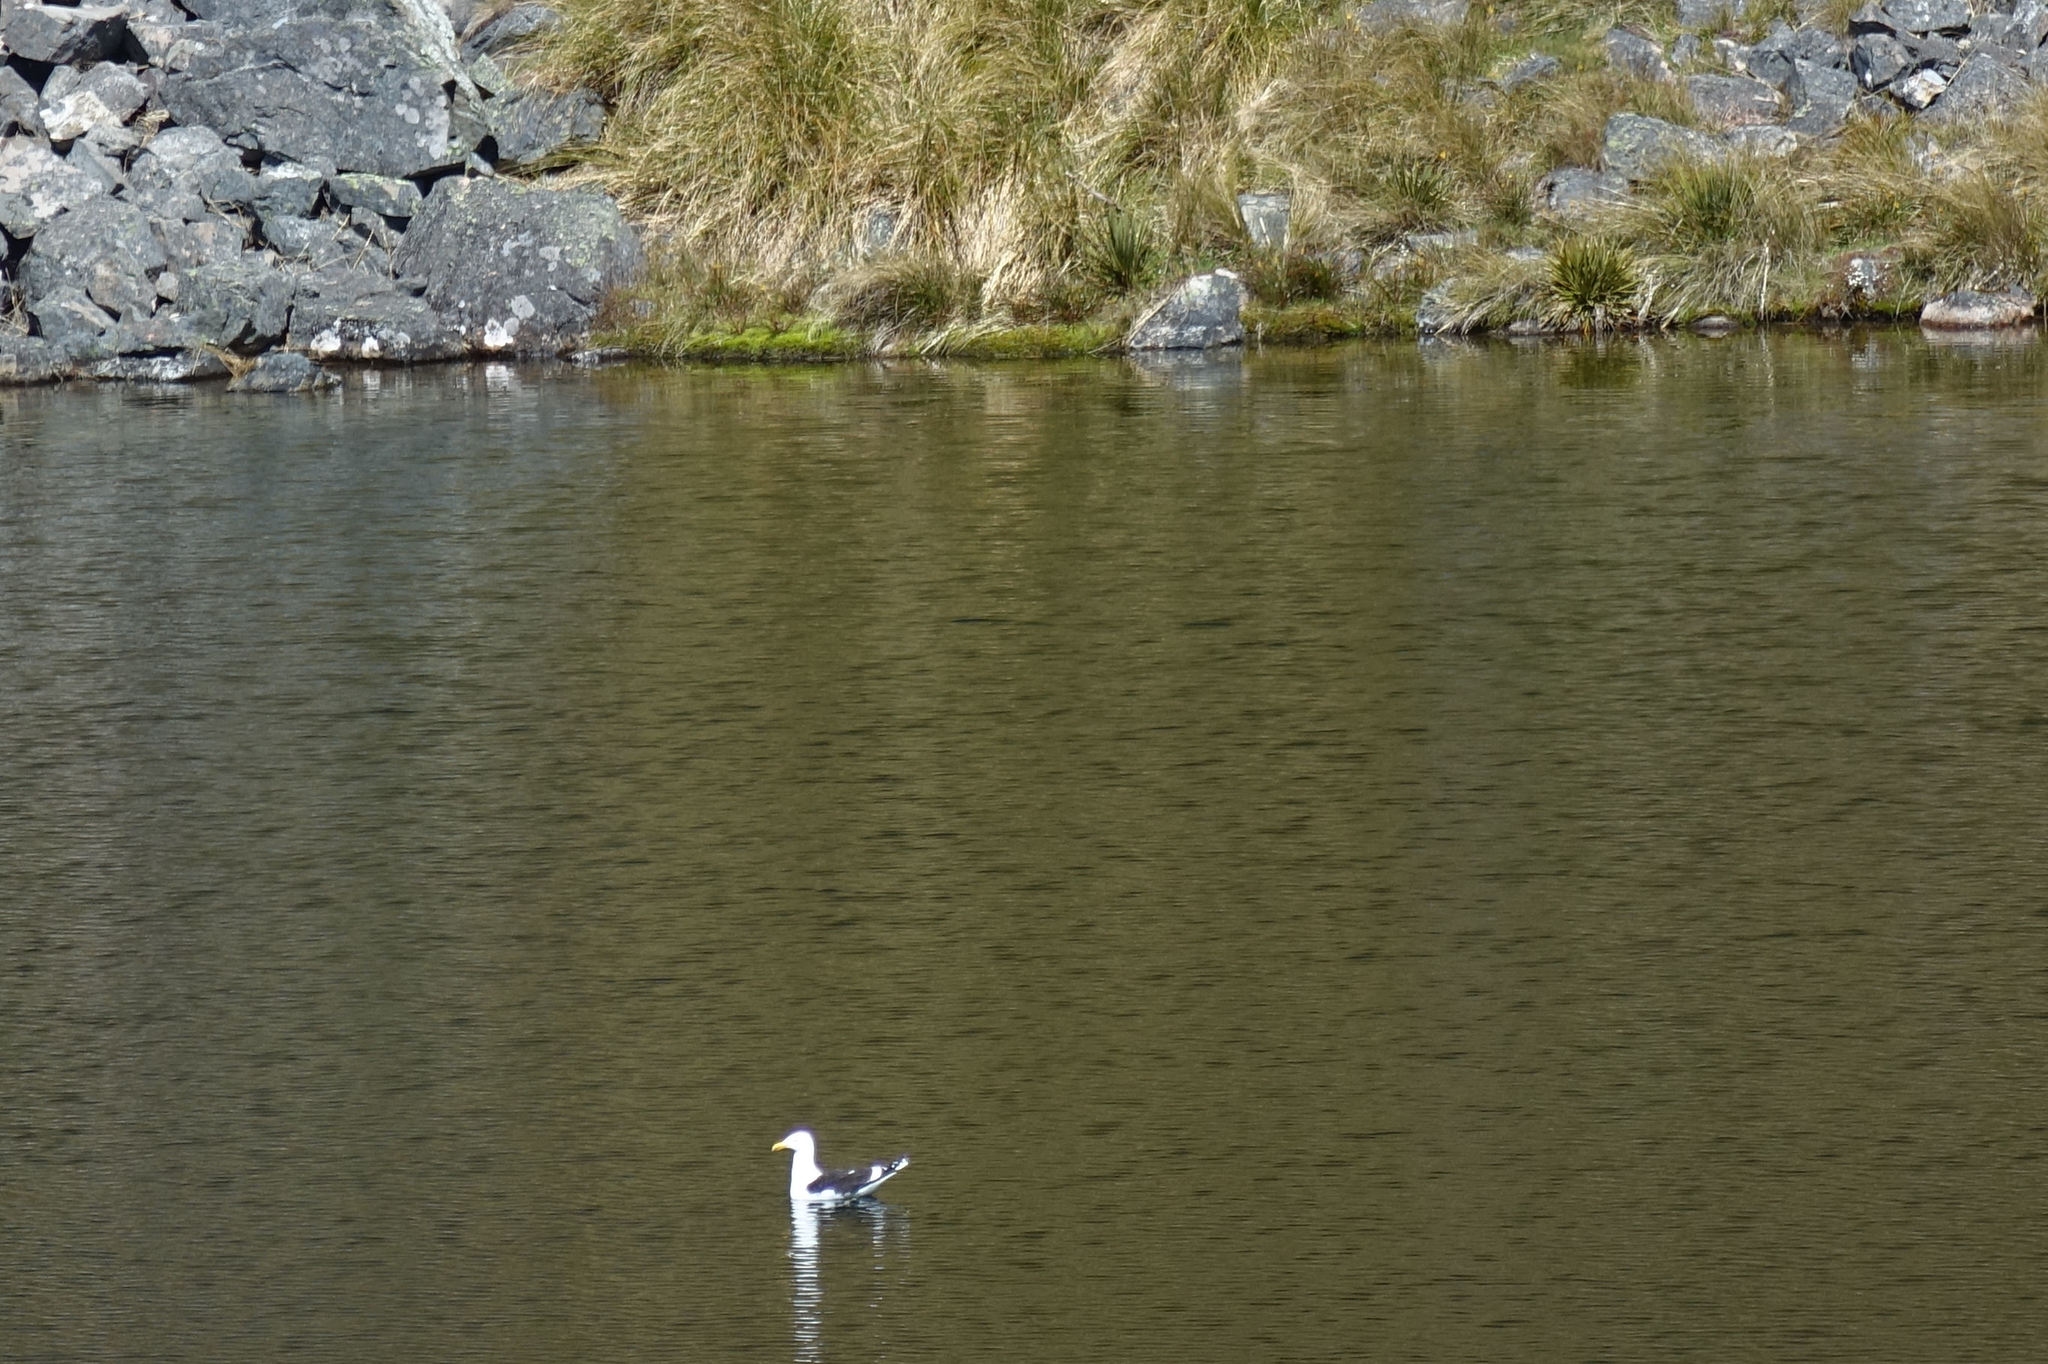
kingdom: Animalia
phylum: Chordata
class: Aves
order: Charadriiformes
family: Laridae
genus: Larus
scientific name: Larus dominicanus
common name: Kelp gull
